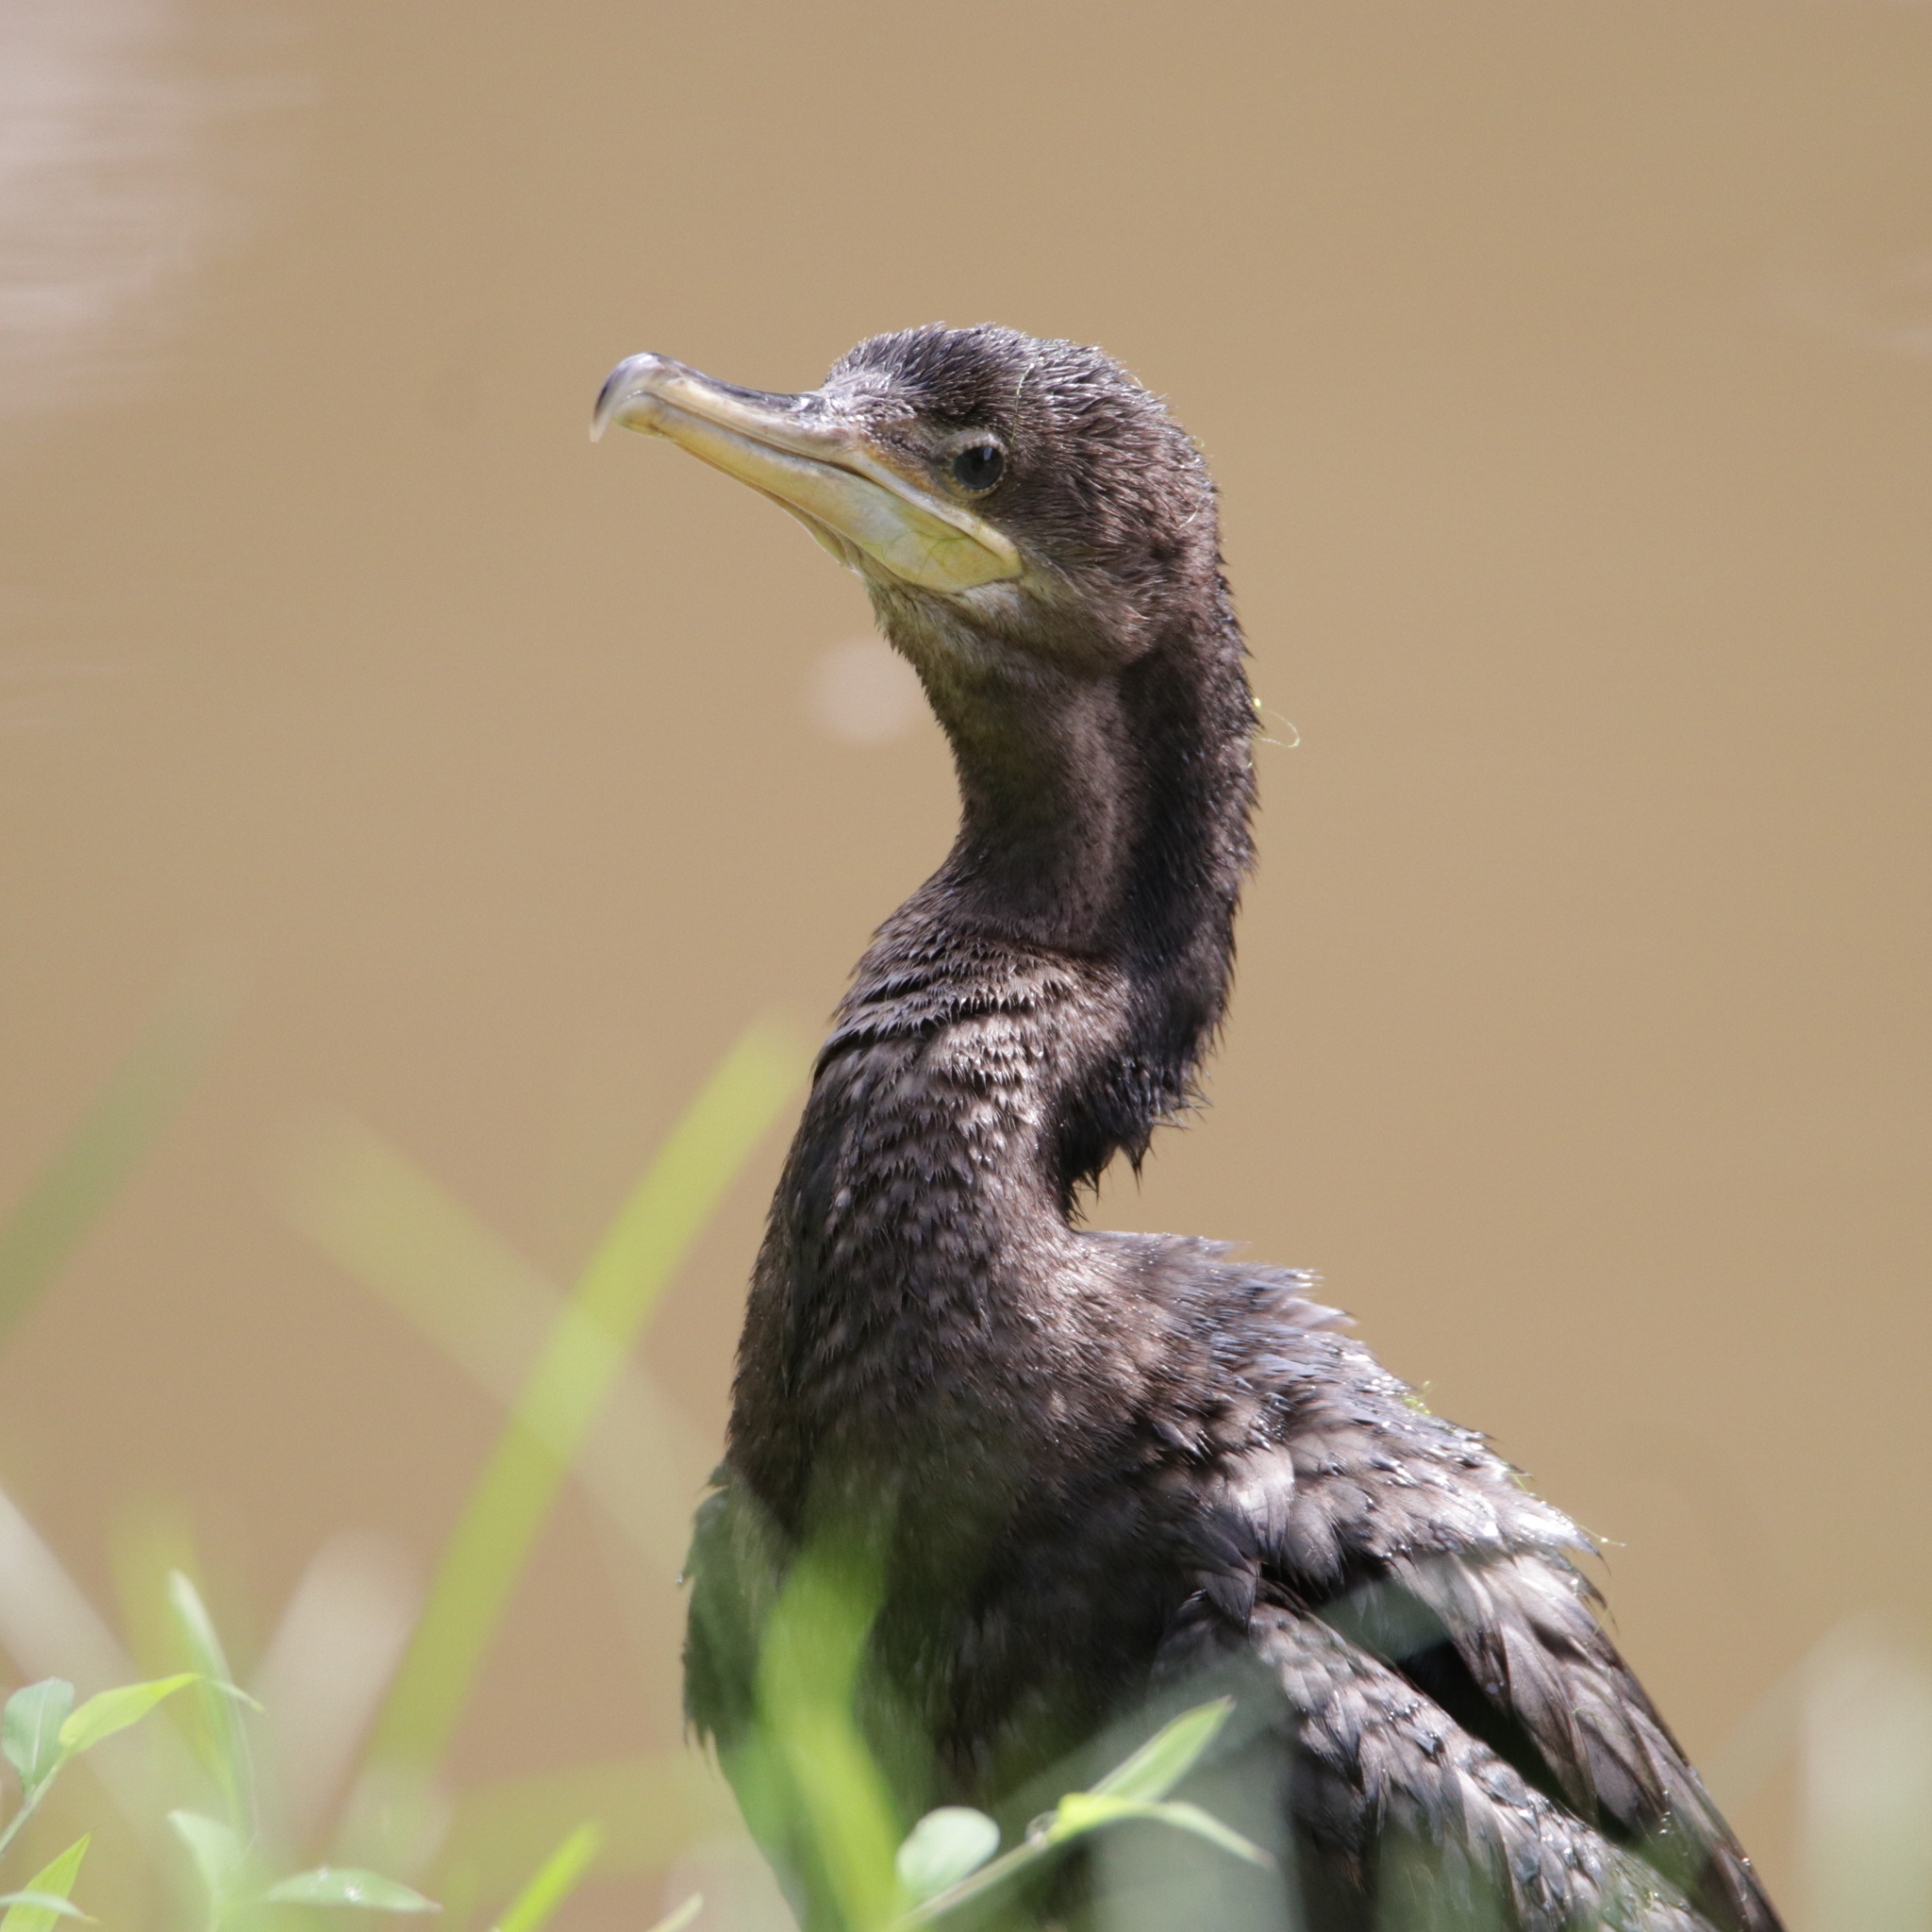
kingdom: Animalia
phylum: Chordata
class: Aves
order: Suliformes
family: Phalacrocoracidae
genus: Phalacrocorax
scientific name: Phalacrocorax brasilianus
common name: Neotropic cormorant
